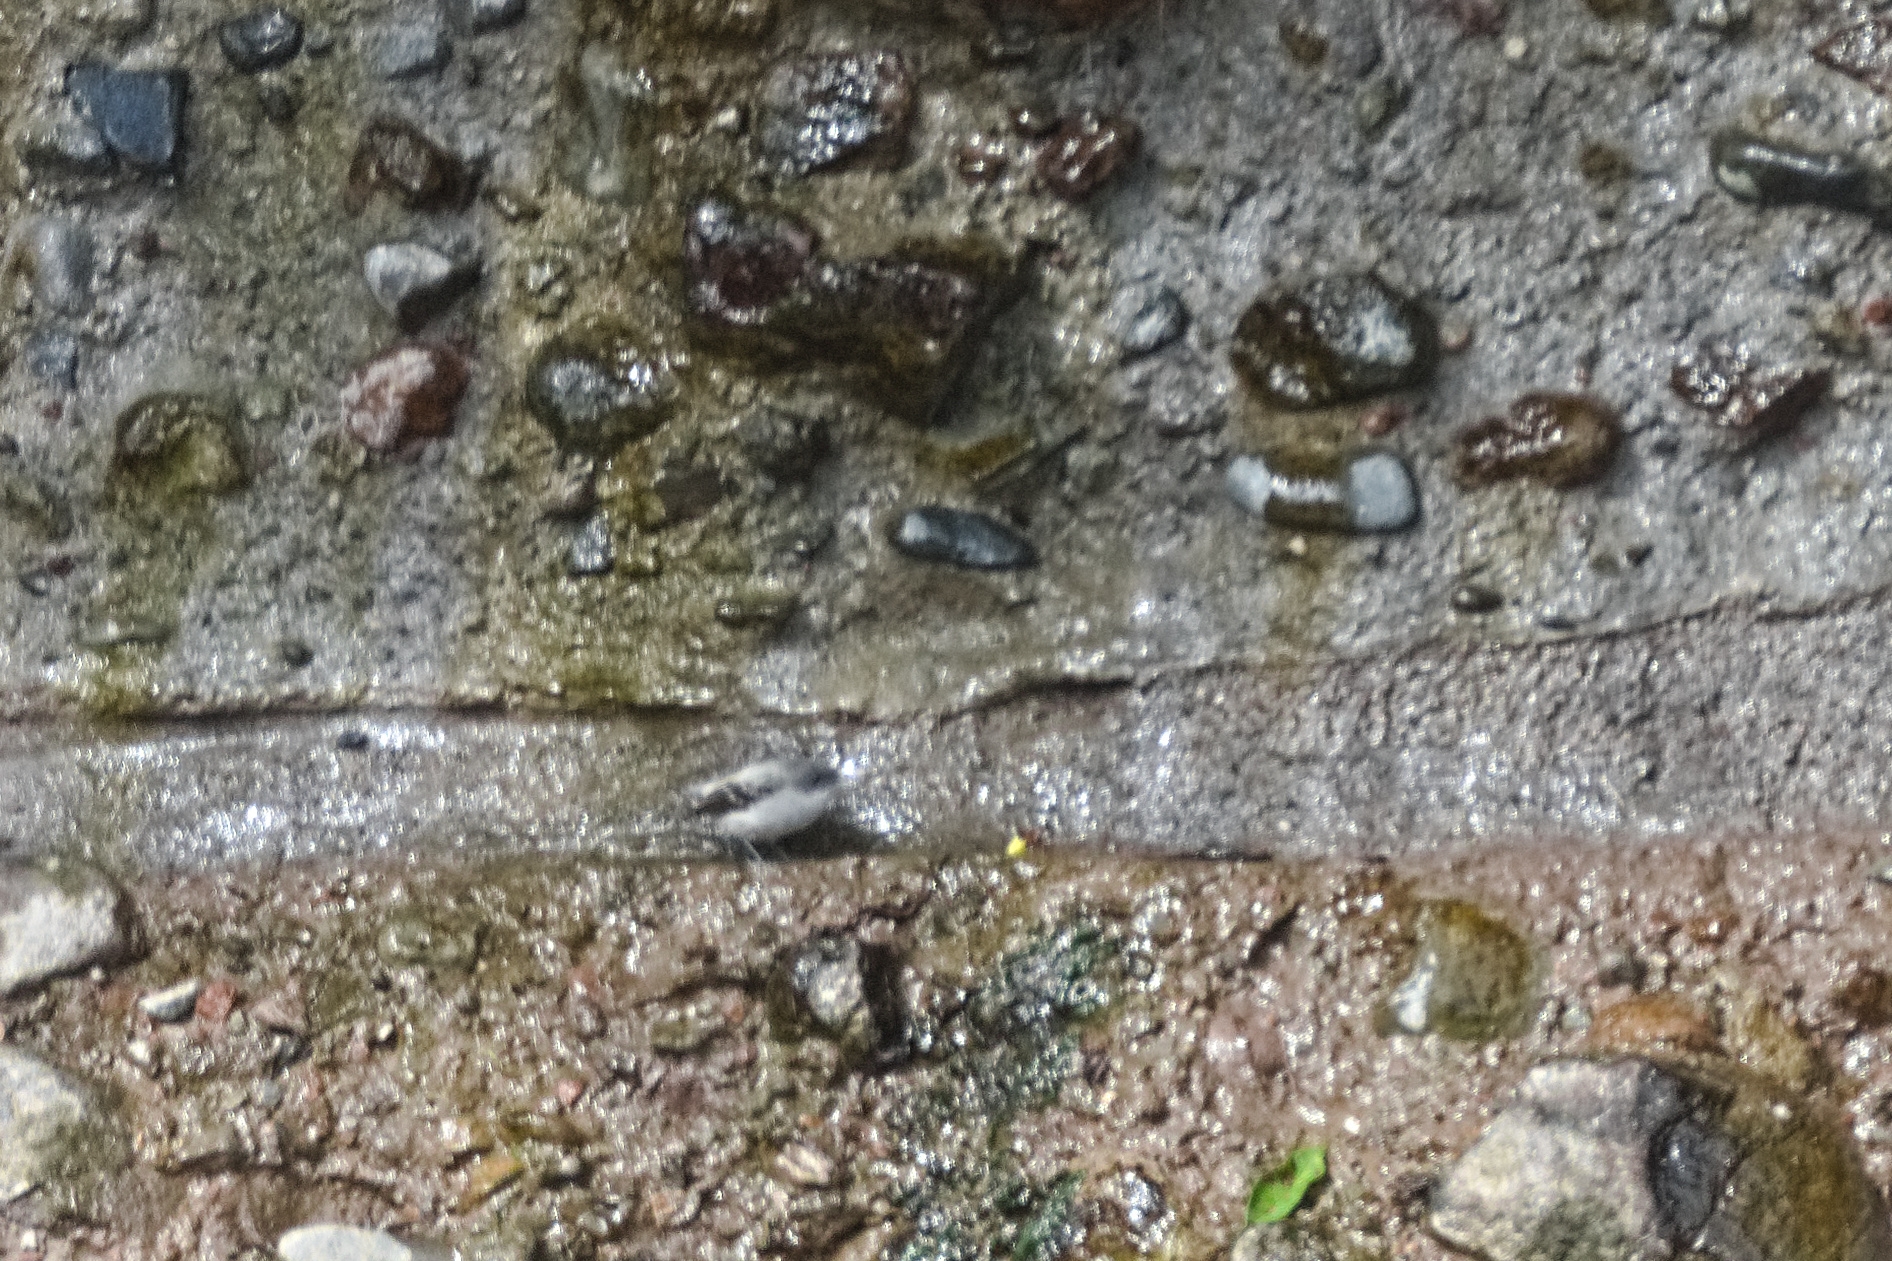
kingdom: Animalia
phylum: Chordata
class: Aves
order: Passeriformes
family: Tyrannidae
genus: Serpophaga
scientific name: Serpophaga cinerea
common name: Torrent tyrannulet
